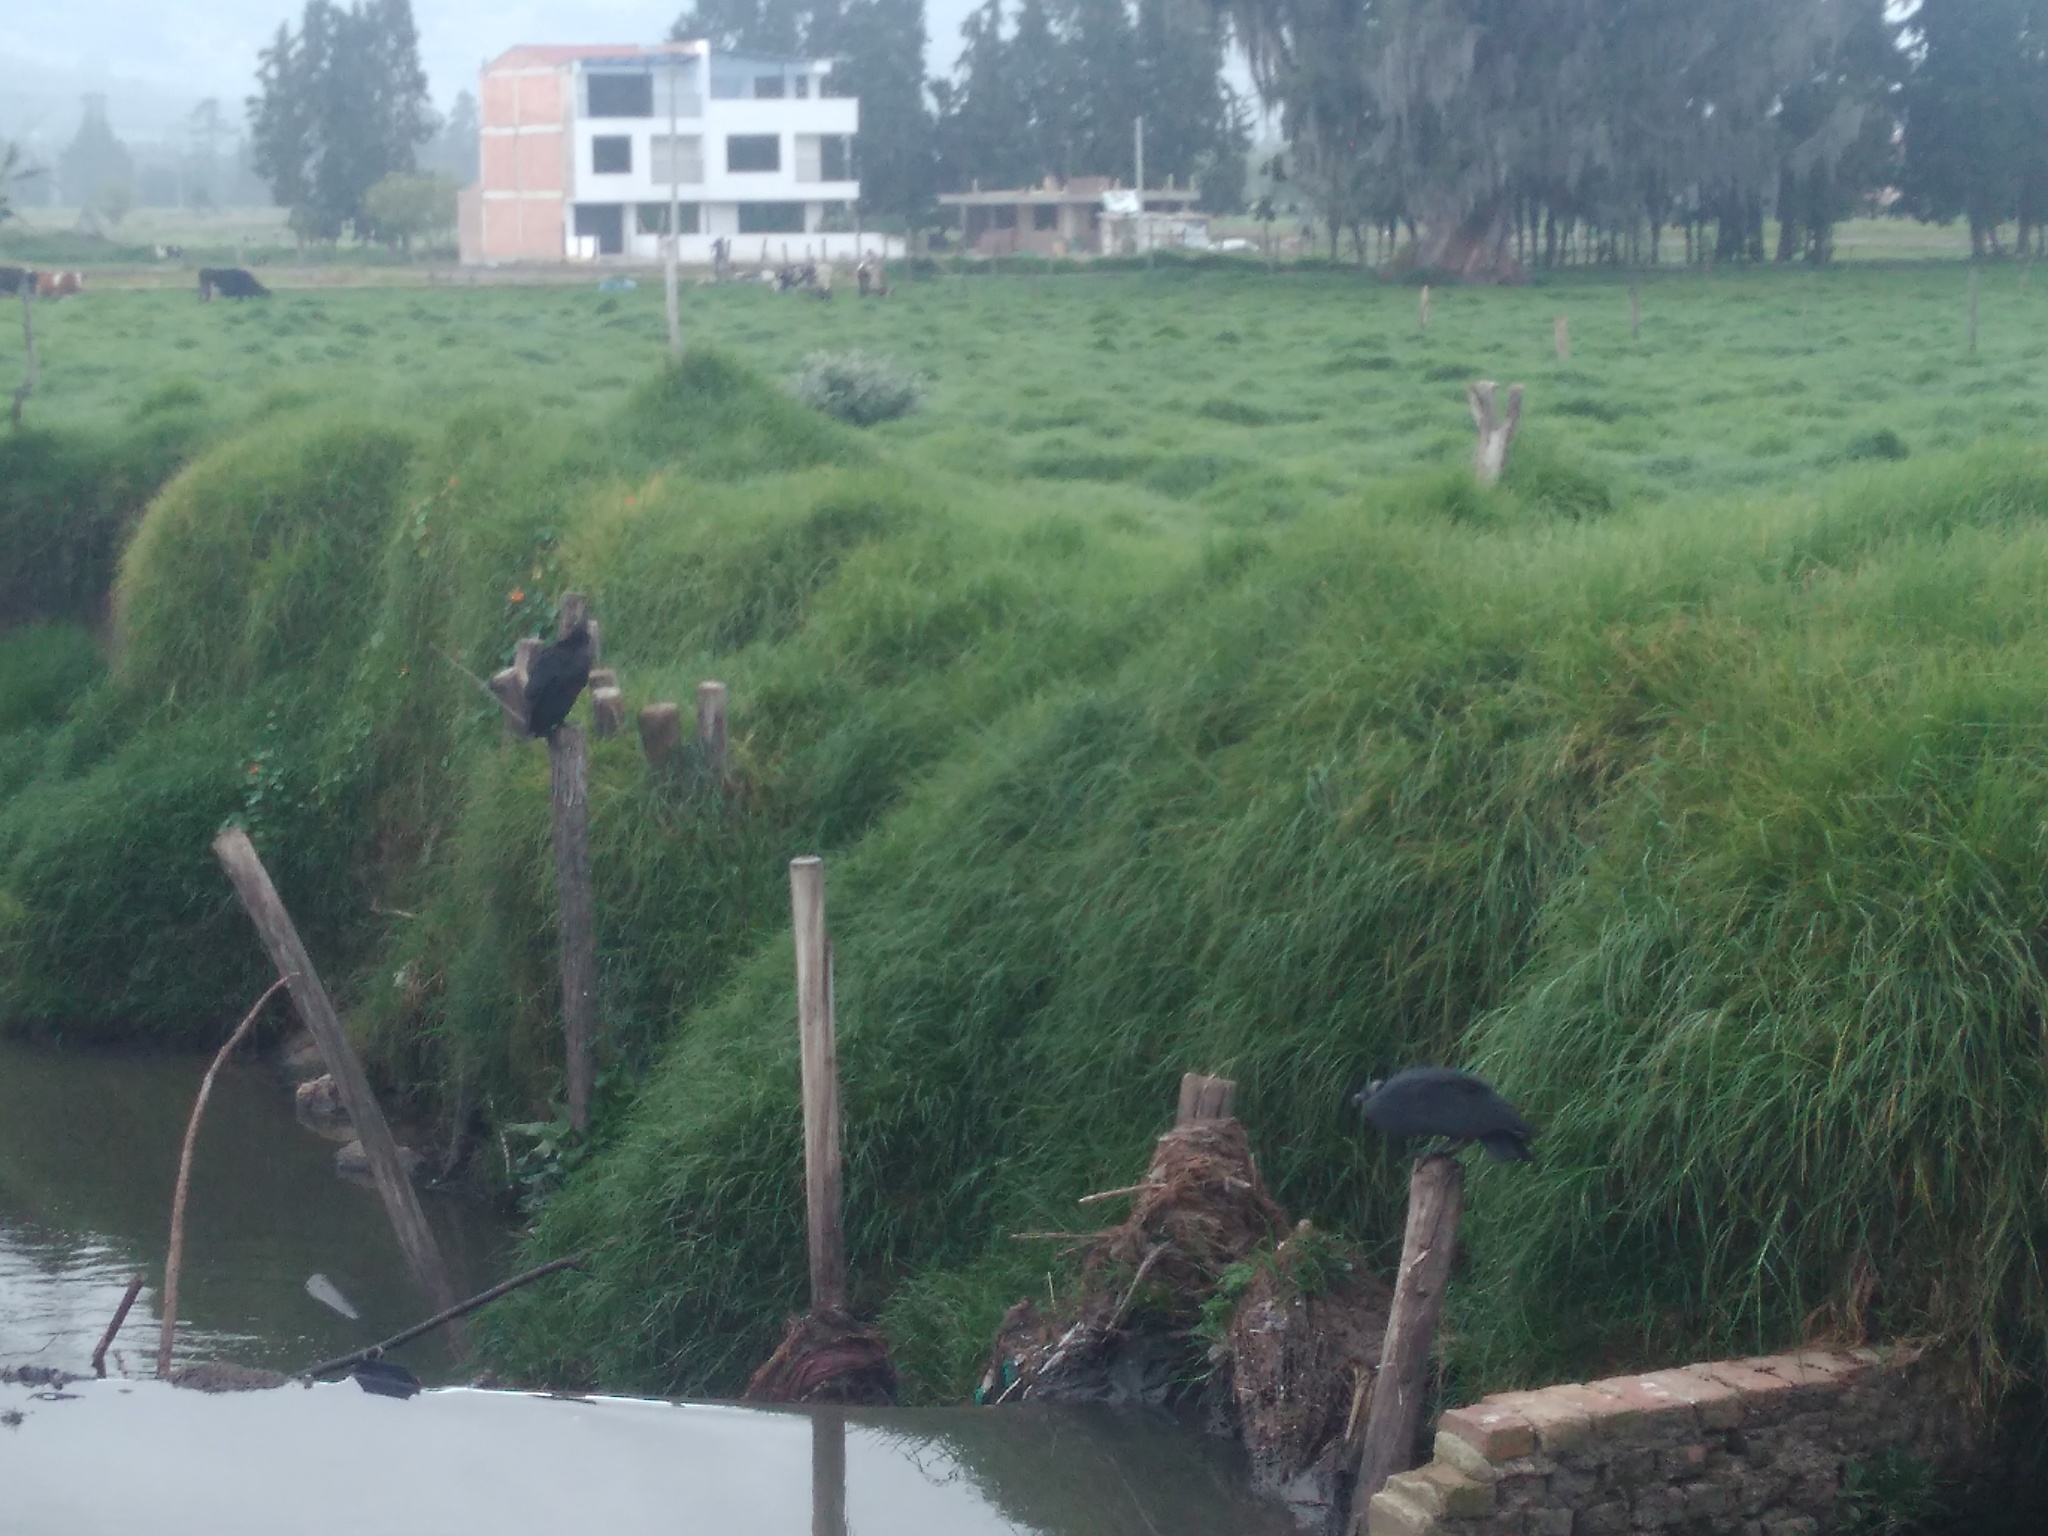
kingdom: Animalia
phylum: Chordata
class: Aves
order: Accipitriformes
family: Cathartidae
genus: Coragyps
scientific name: Coragyps atratus
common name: Black vulture
